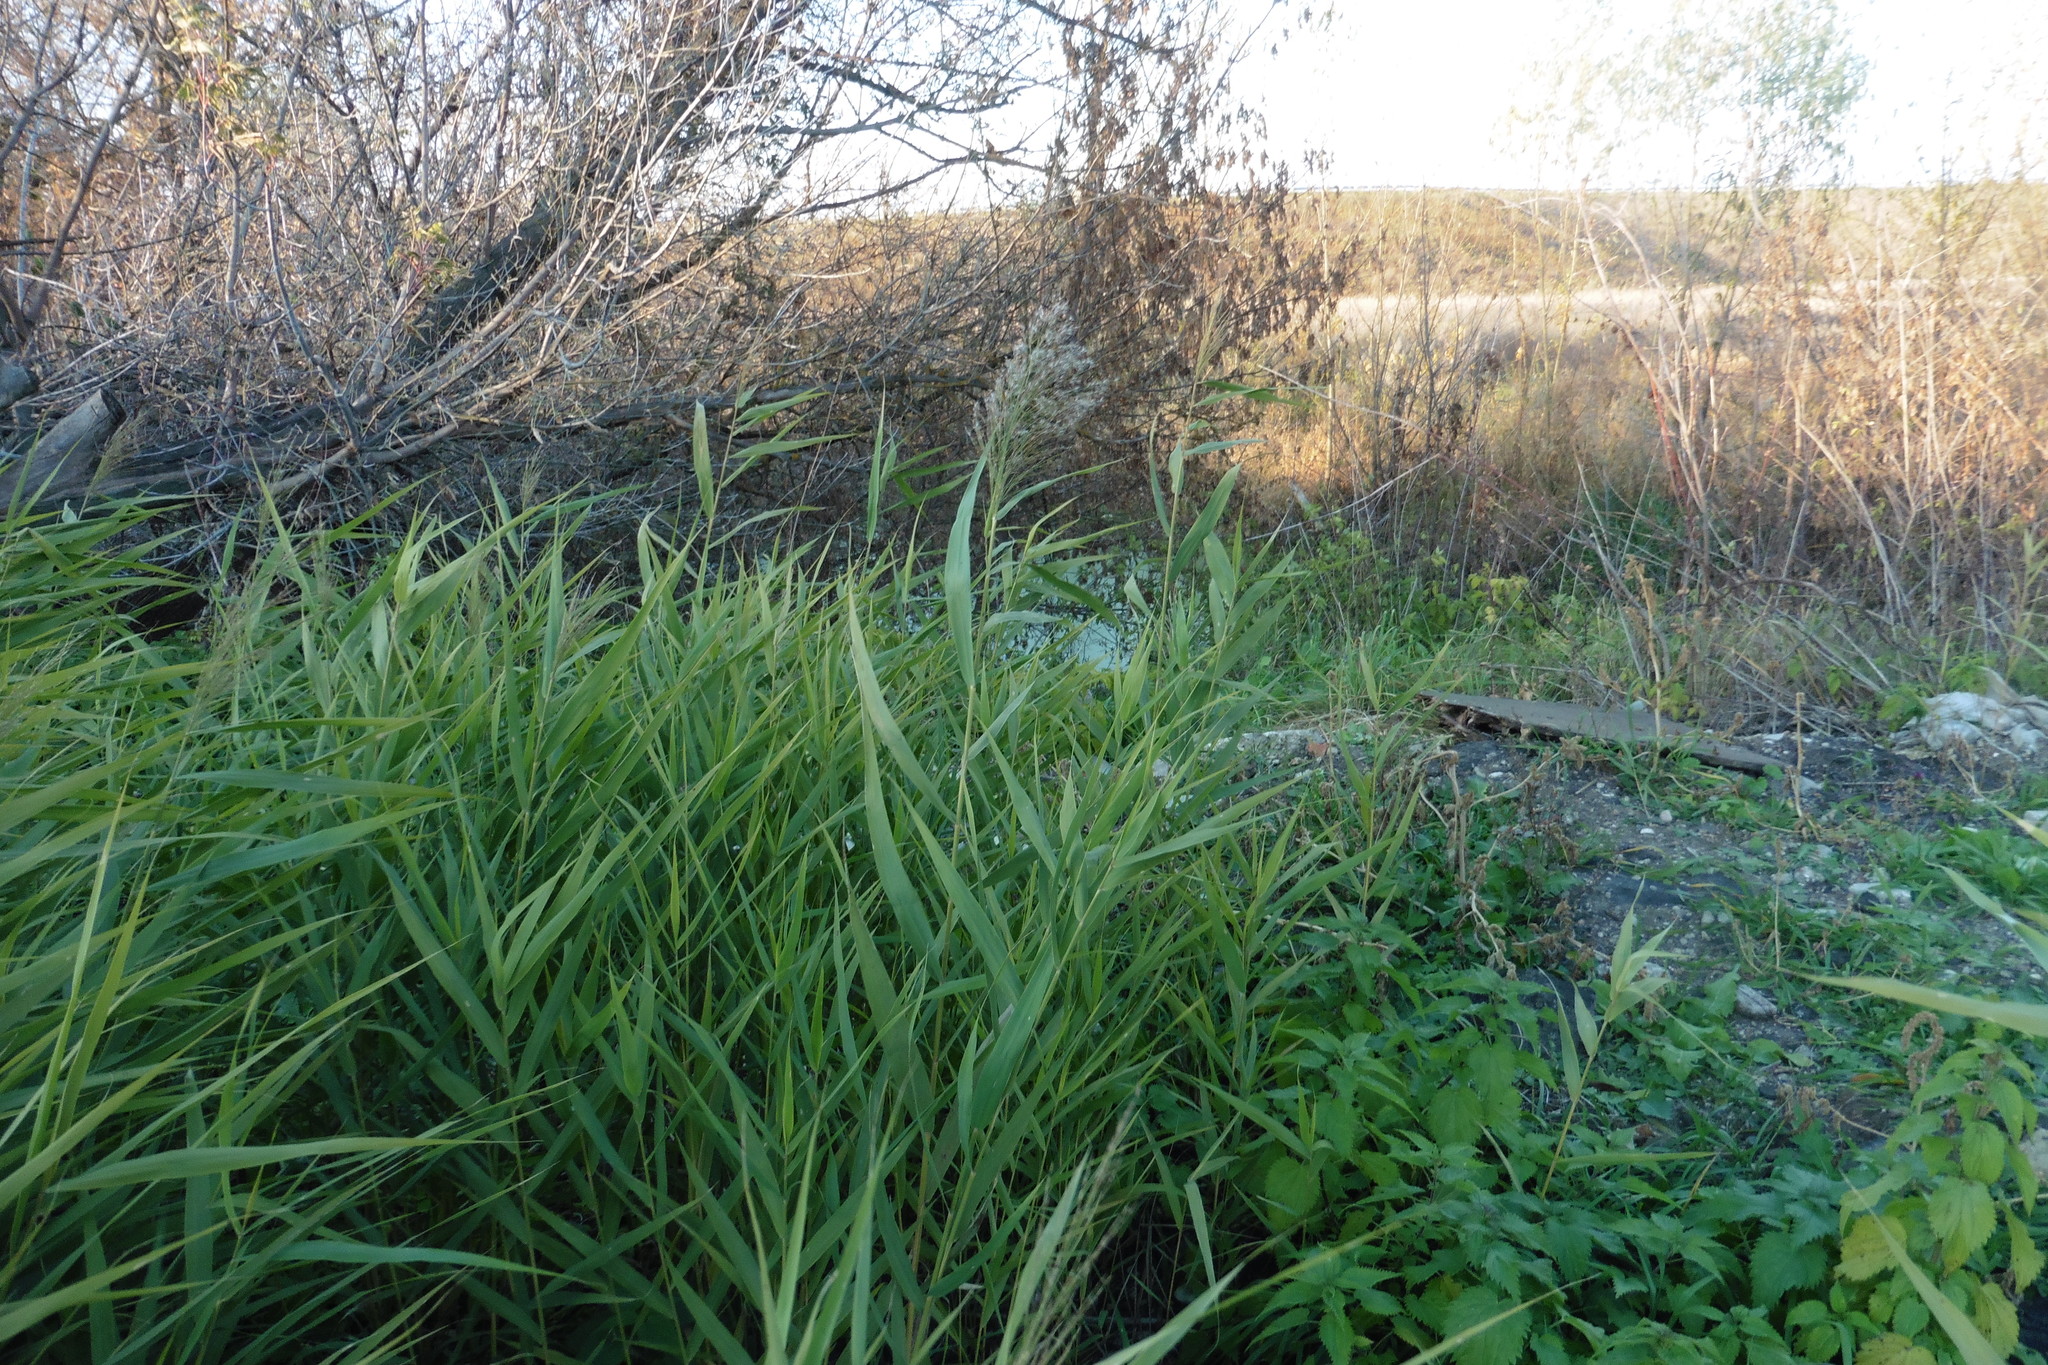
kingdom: Plantae
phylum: Tracheophyta
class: Liliopsida
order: Poales
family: Poaceae
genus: Phragmites
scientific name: Phragmites australis
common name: Common reed
